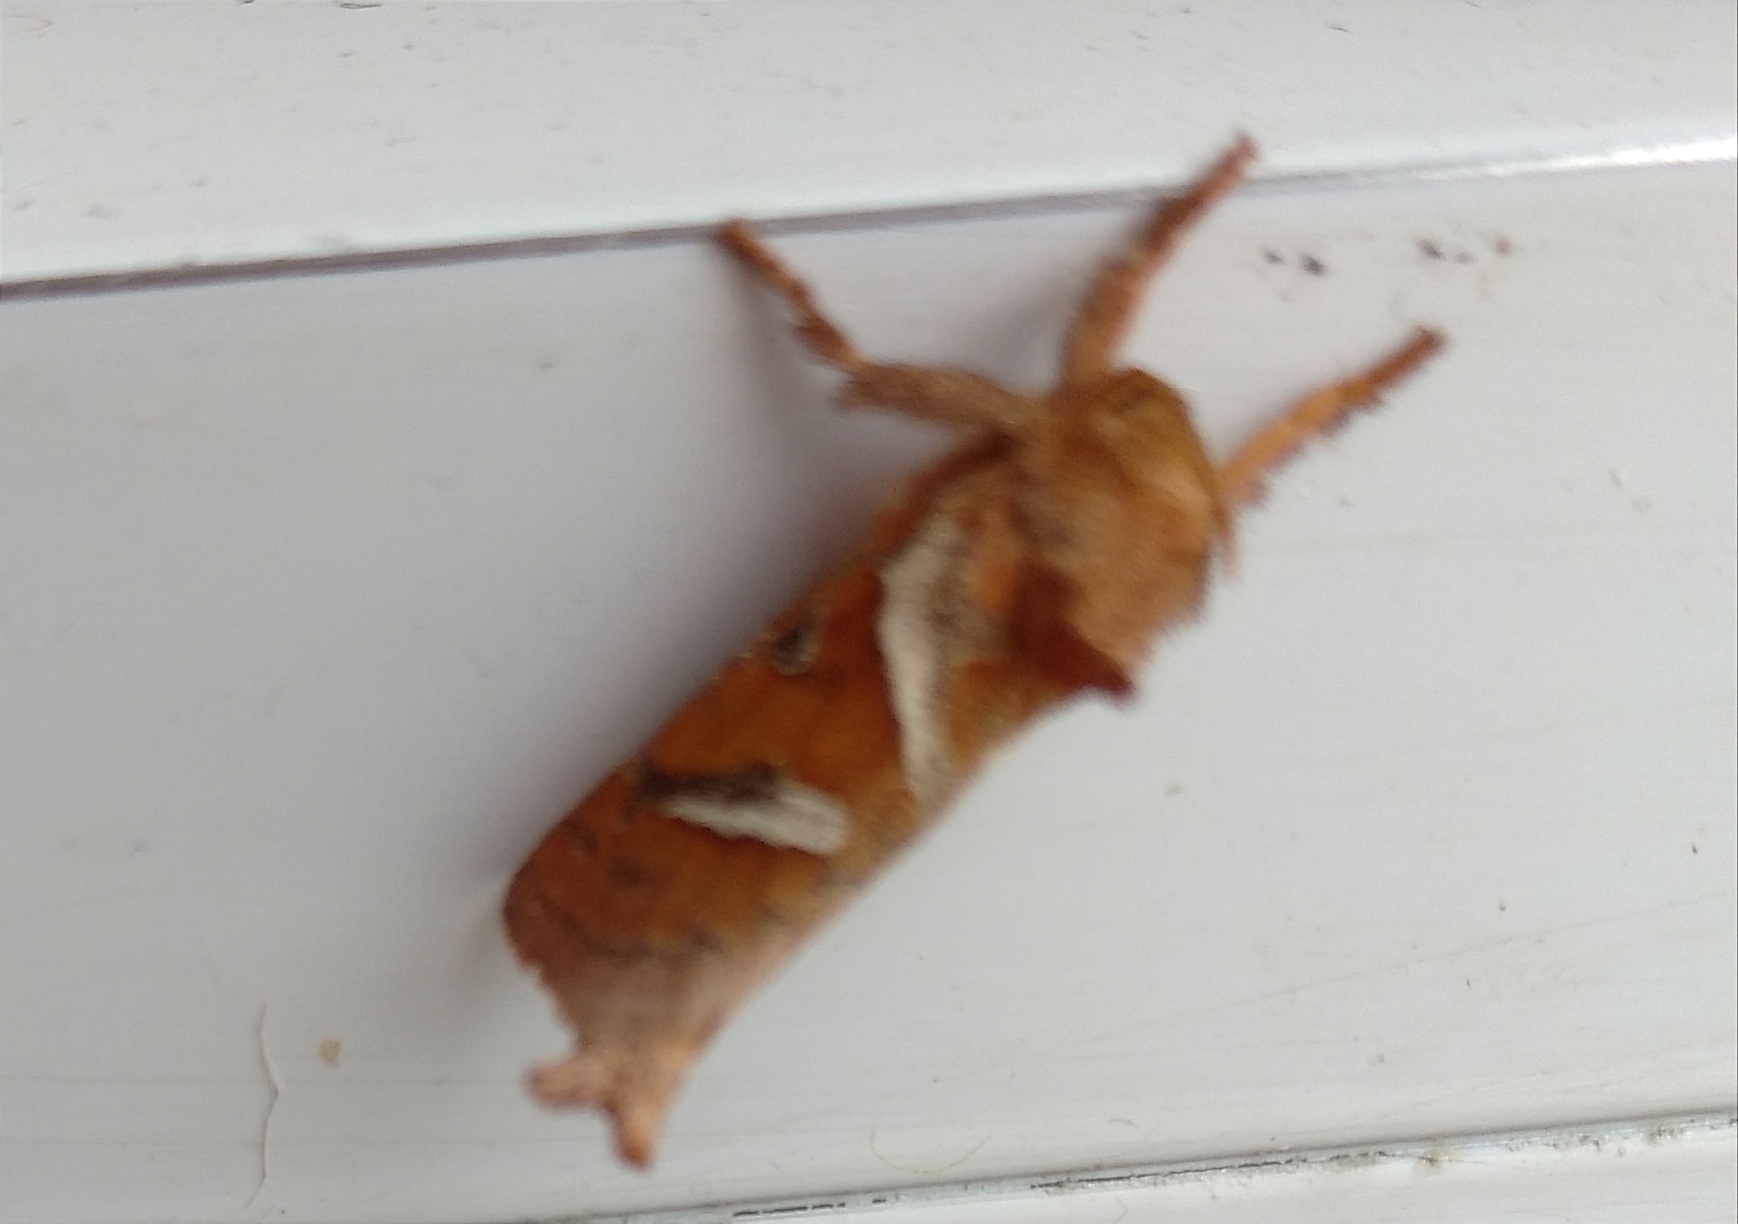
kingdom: Animalia
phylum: Arthropoda
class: Insecta
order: Lepidoptera
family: Hepialidae
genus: Triodia
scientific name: Triodia sylvina
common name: Orange swift
